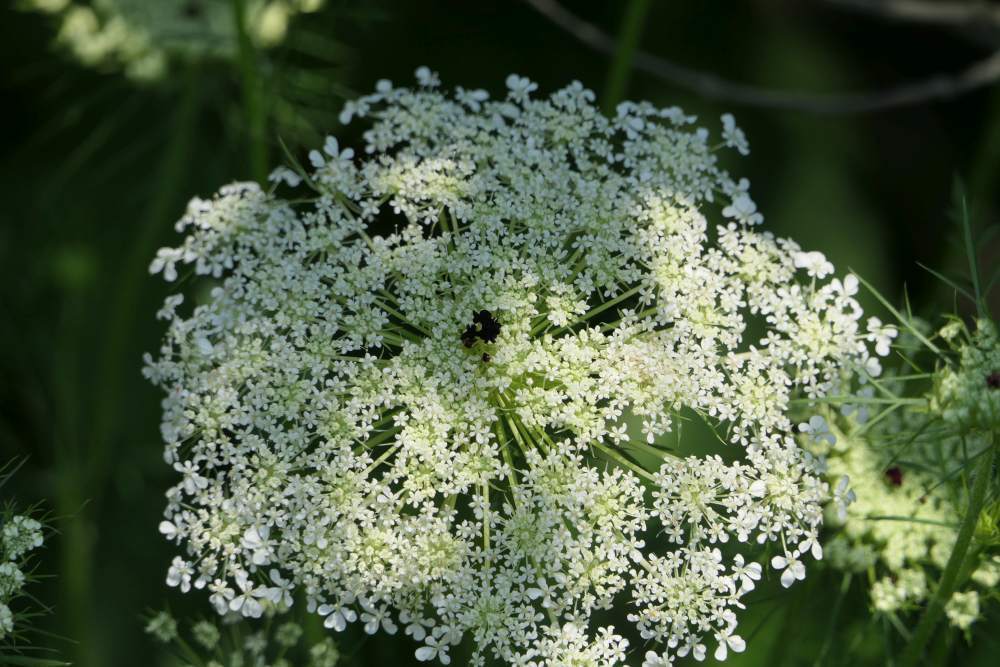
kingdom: Plantae
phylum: Tracheophyta
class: Magnoliopsida
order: Apiales
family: Apiaceae
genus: Daucus
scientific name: Daucus carota
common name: Wild carrot
